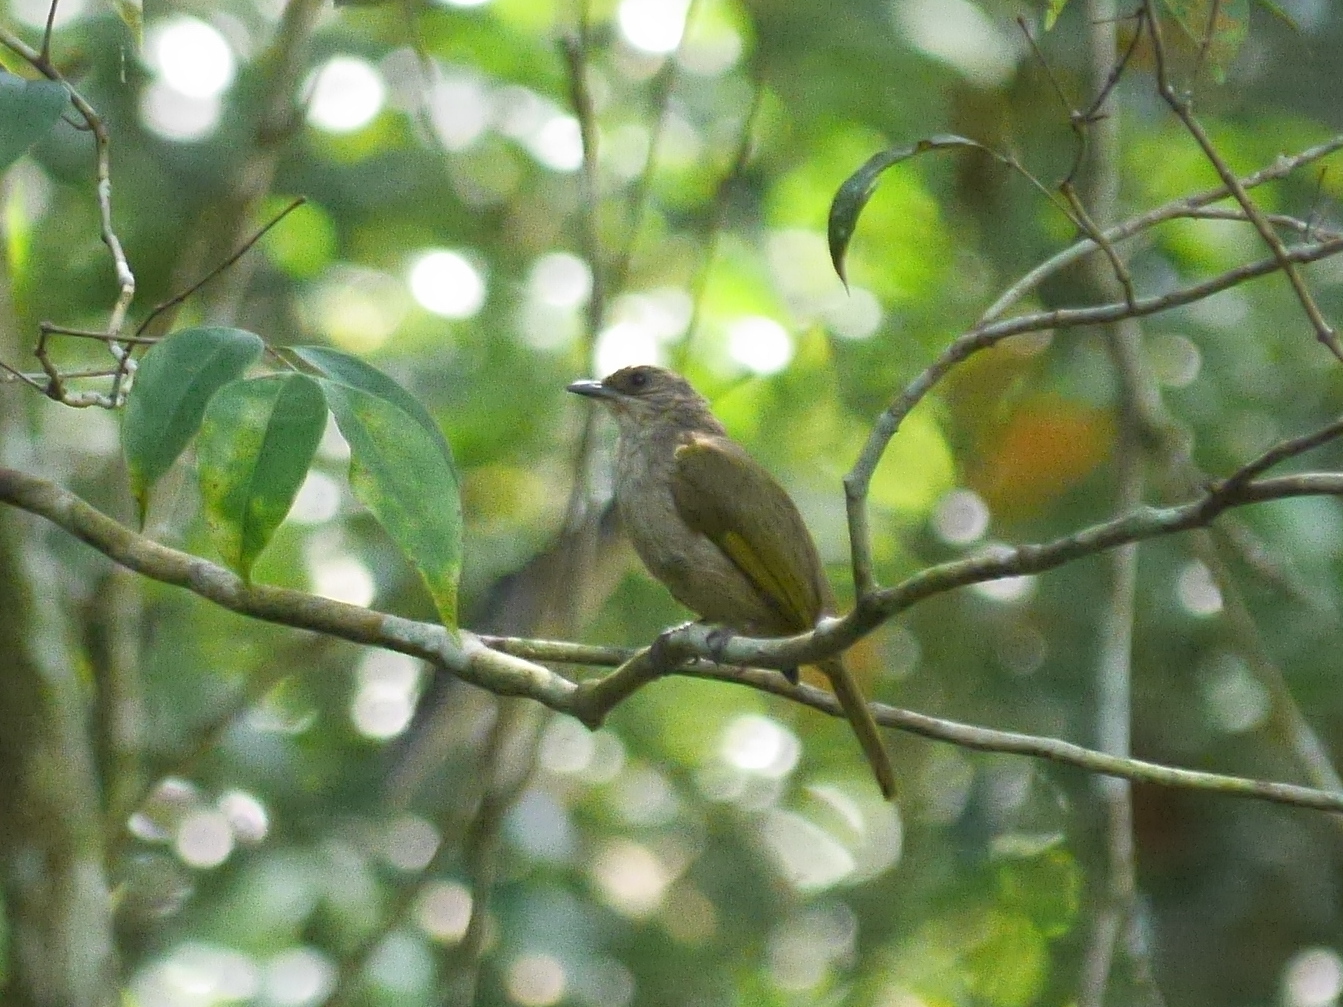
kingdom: Animalia
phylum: Chordata
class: Aves
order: Passeriformes
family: Pycnonotidae
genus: Pycnonotus
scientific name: Pycnonotus plumosus
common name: Olive-winged bulbul
